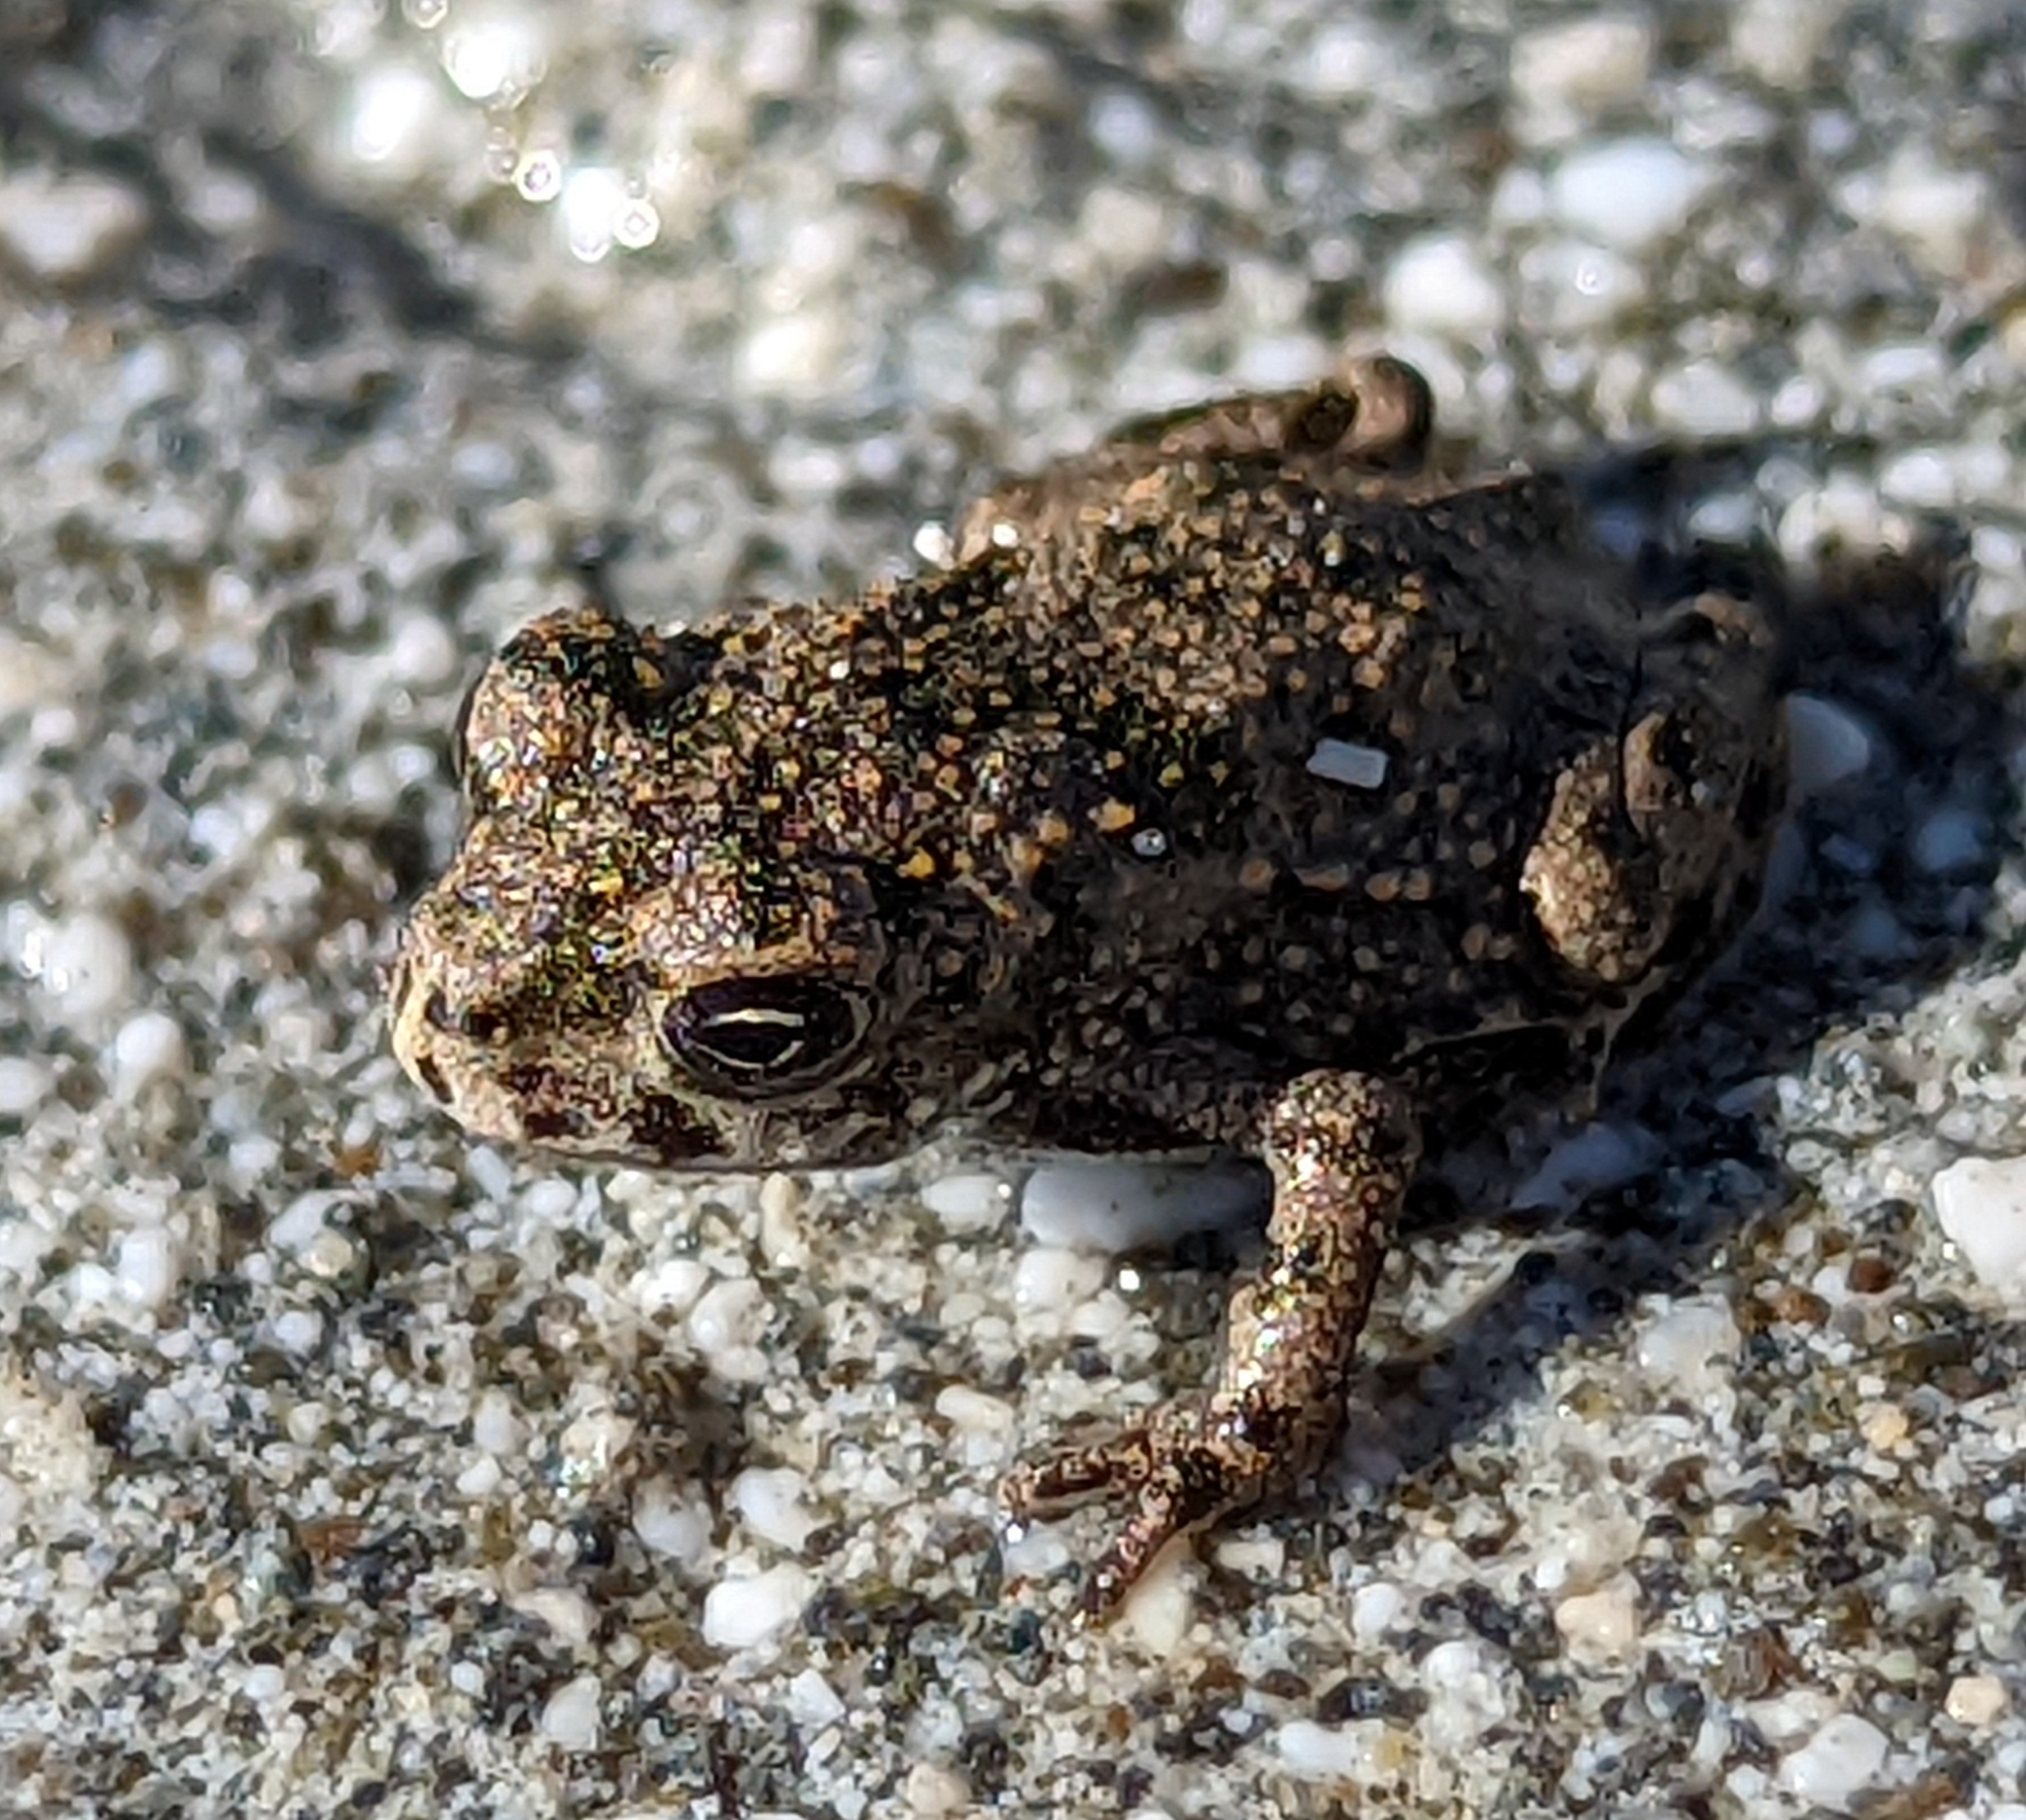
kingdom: Animalia
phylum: Chordata
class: Amphibia
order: Anura
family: Bufonidae
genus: Bufotes
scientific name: Bufotes viridis
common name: European green toad
